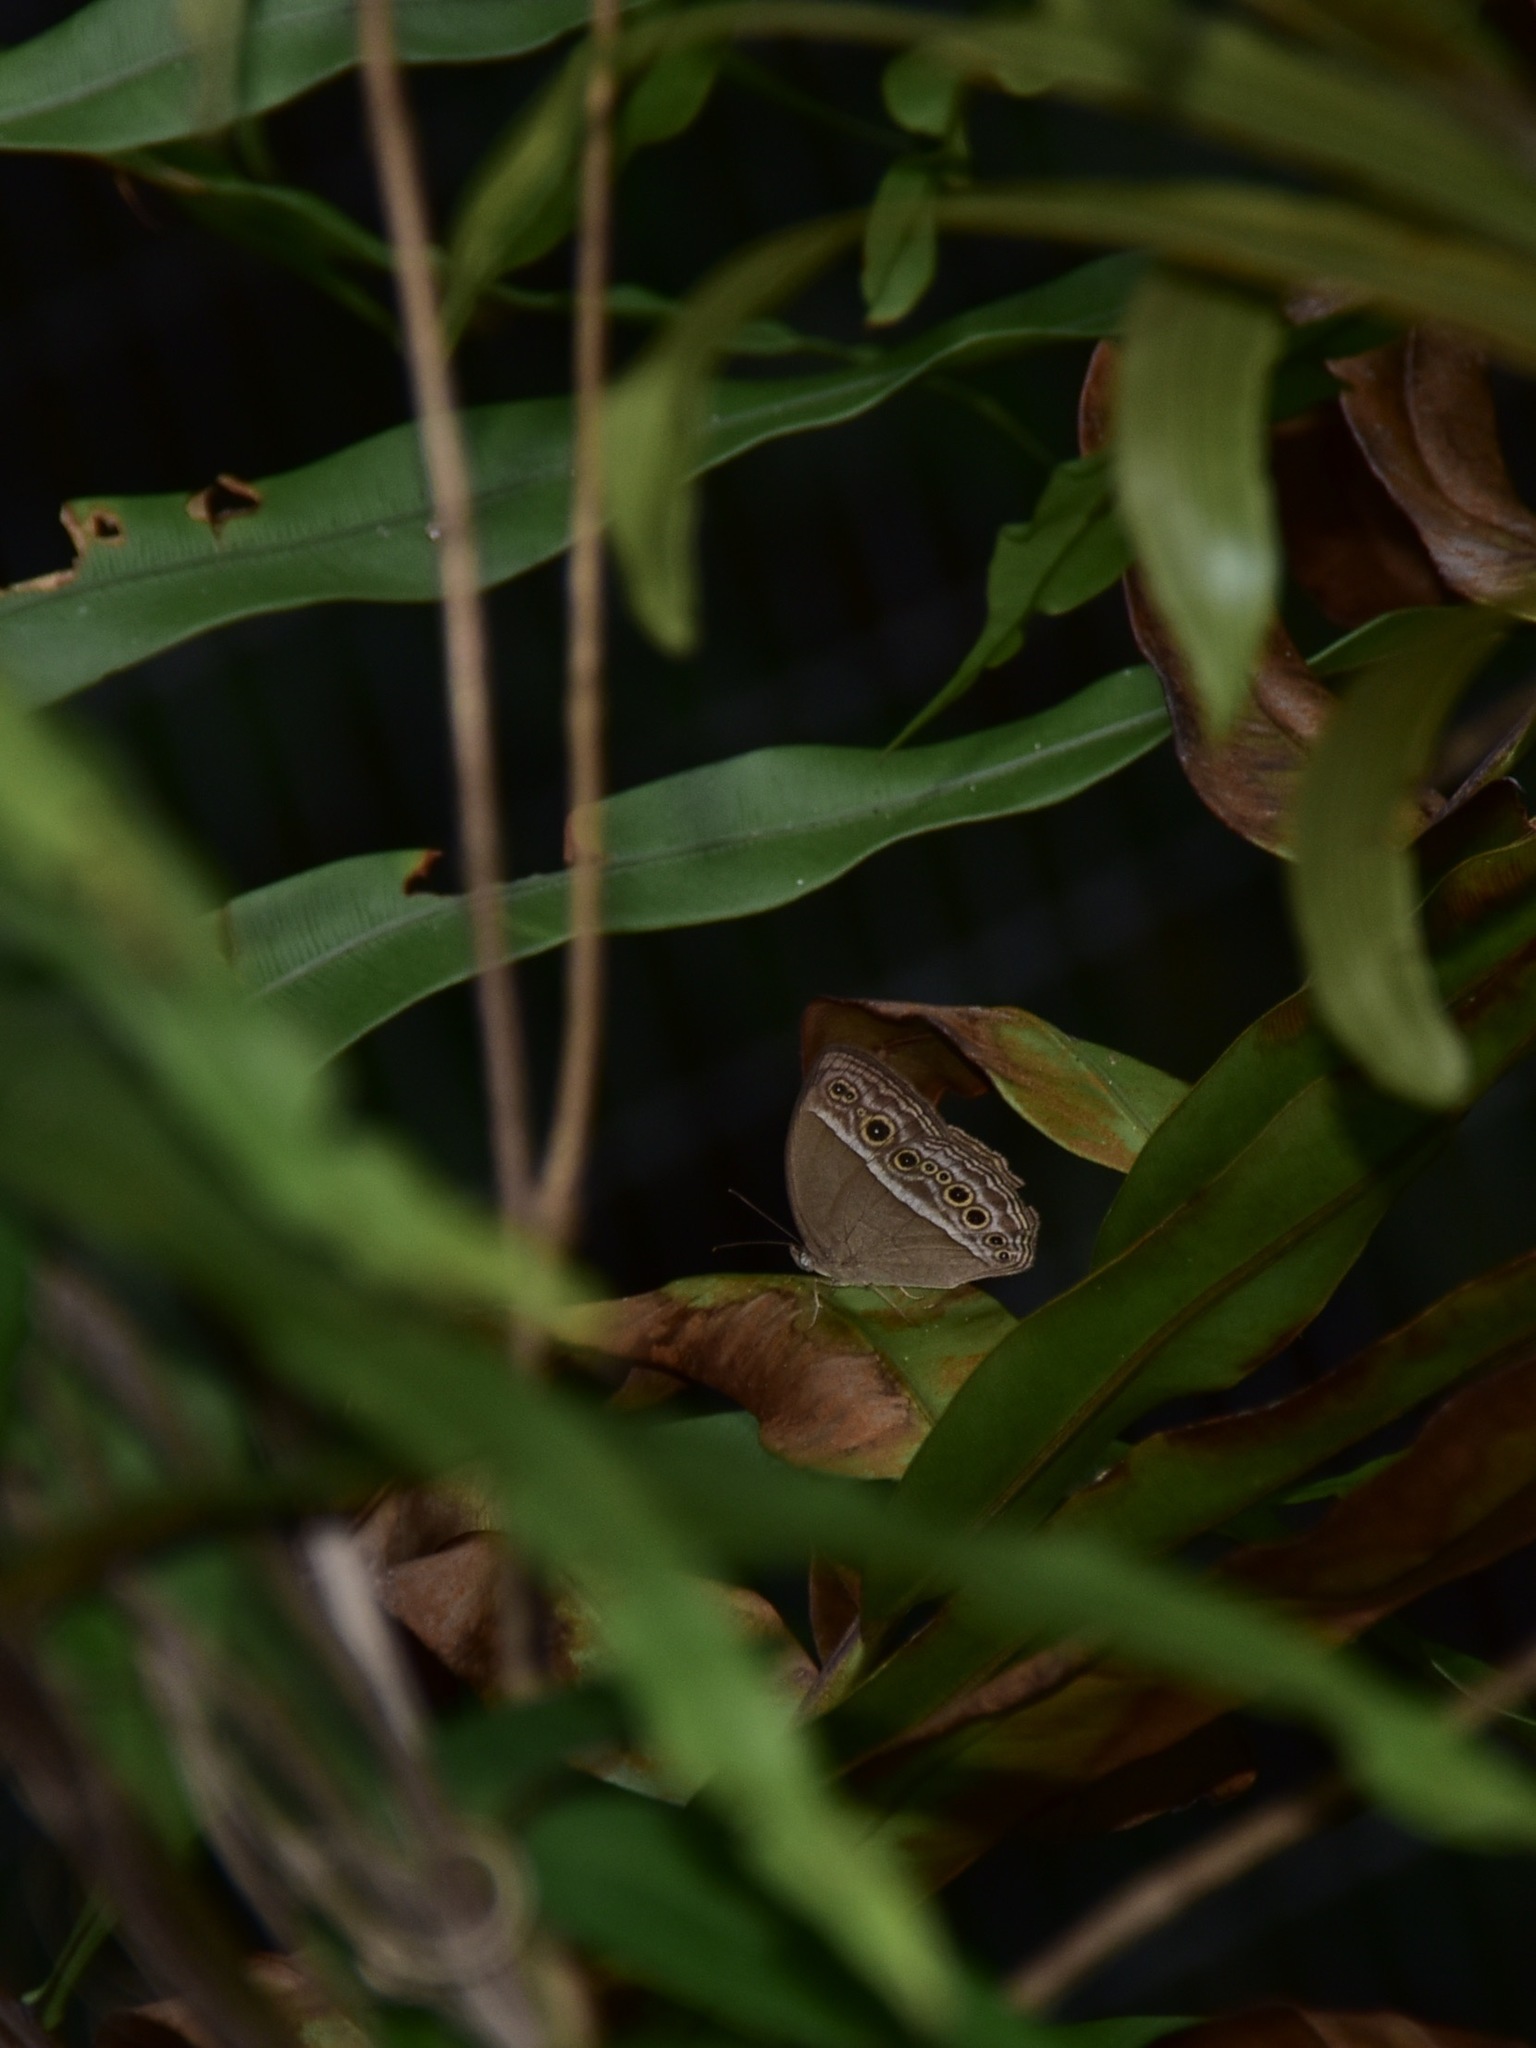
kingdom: Animalia
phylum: Arthropoda
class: Insecta
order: Lepidoptera
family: Nymphalidae
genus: Mycalesis
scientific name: Mycalesis visala
